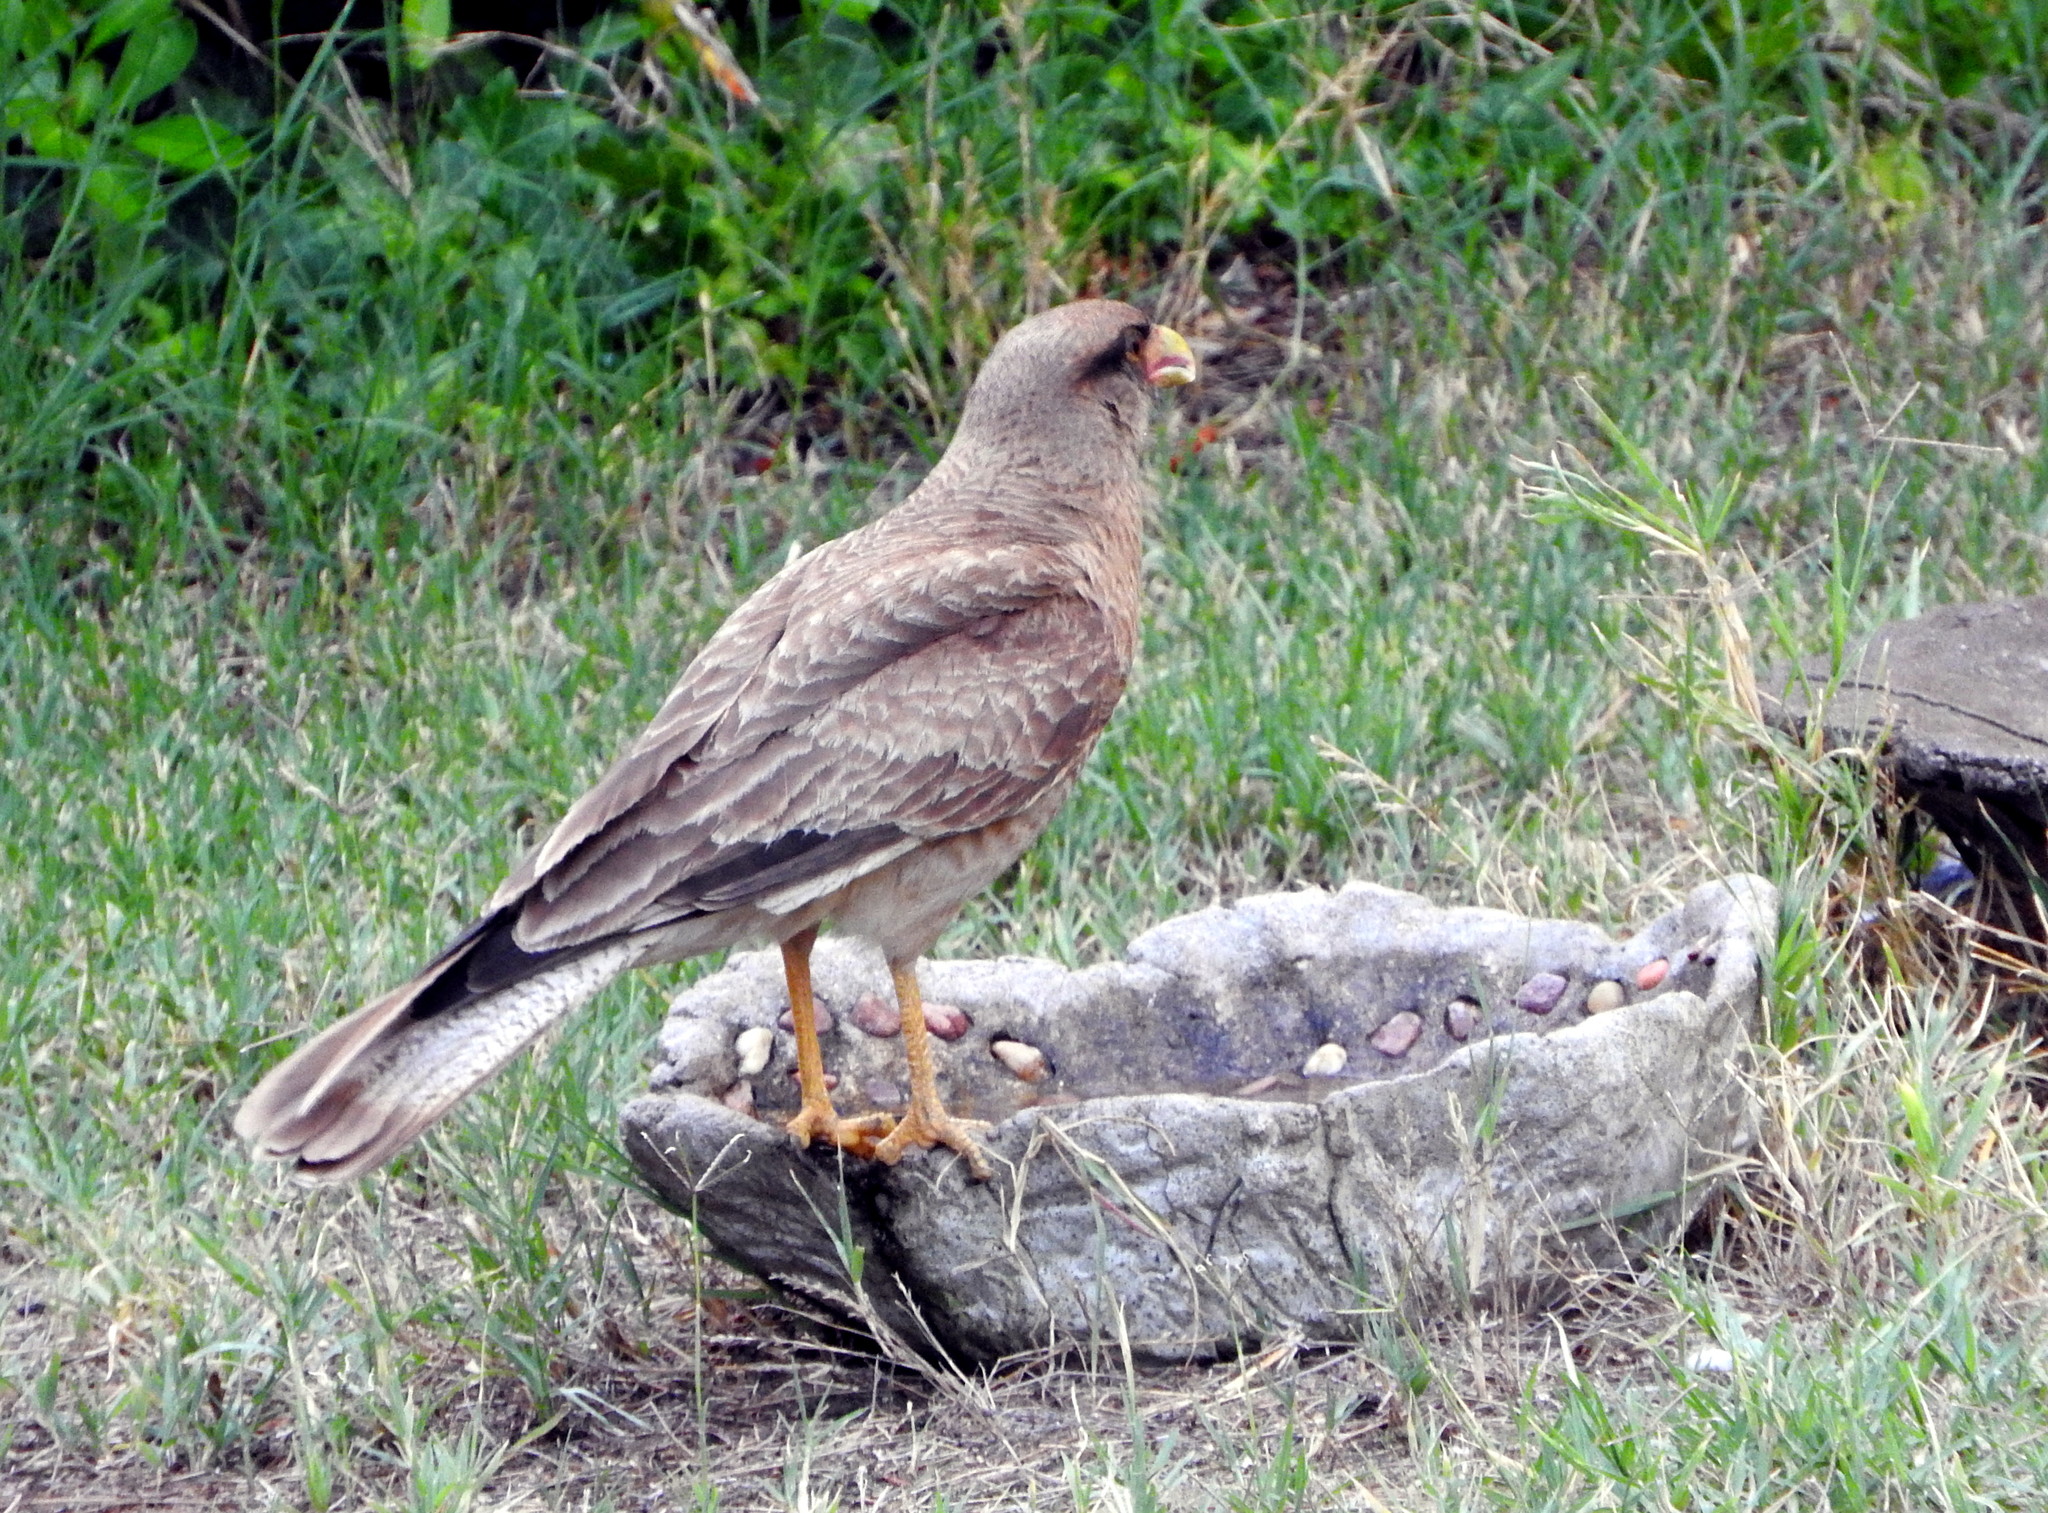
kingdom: Animalia
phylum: Chordata
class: Aves
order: Falconiformes
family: Falconidae
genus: Daptrius
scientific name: Daptrius
